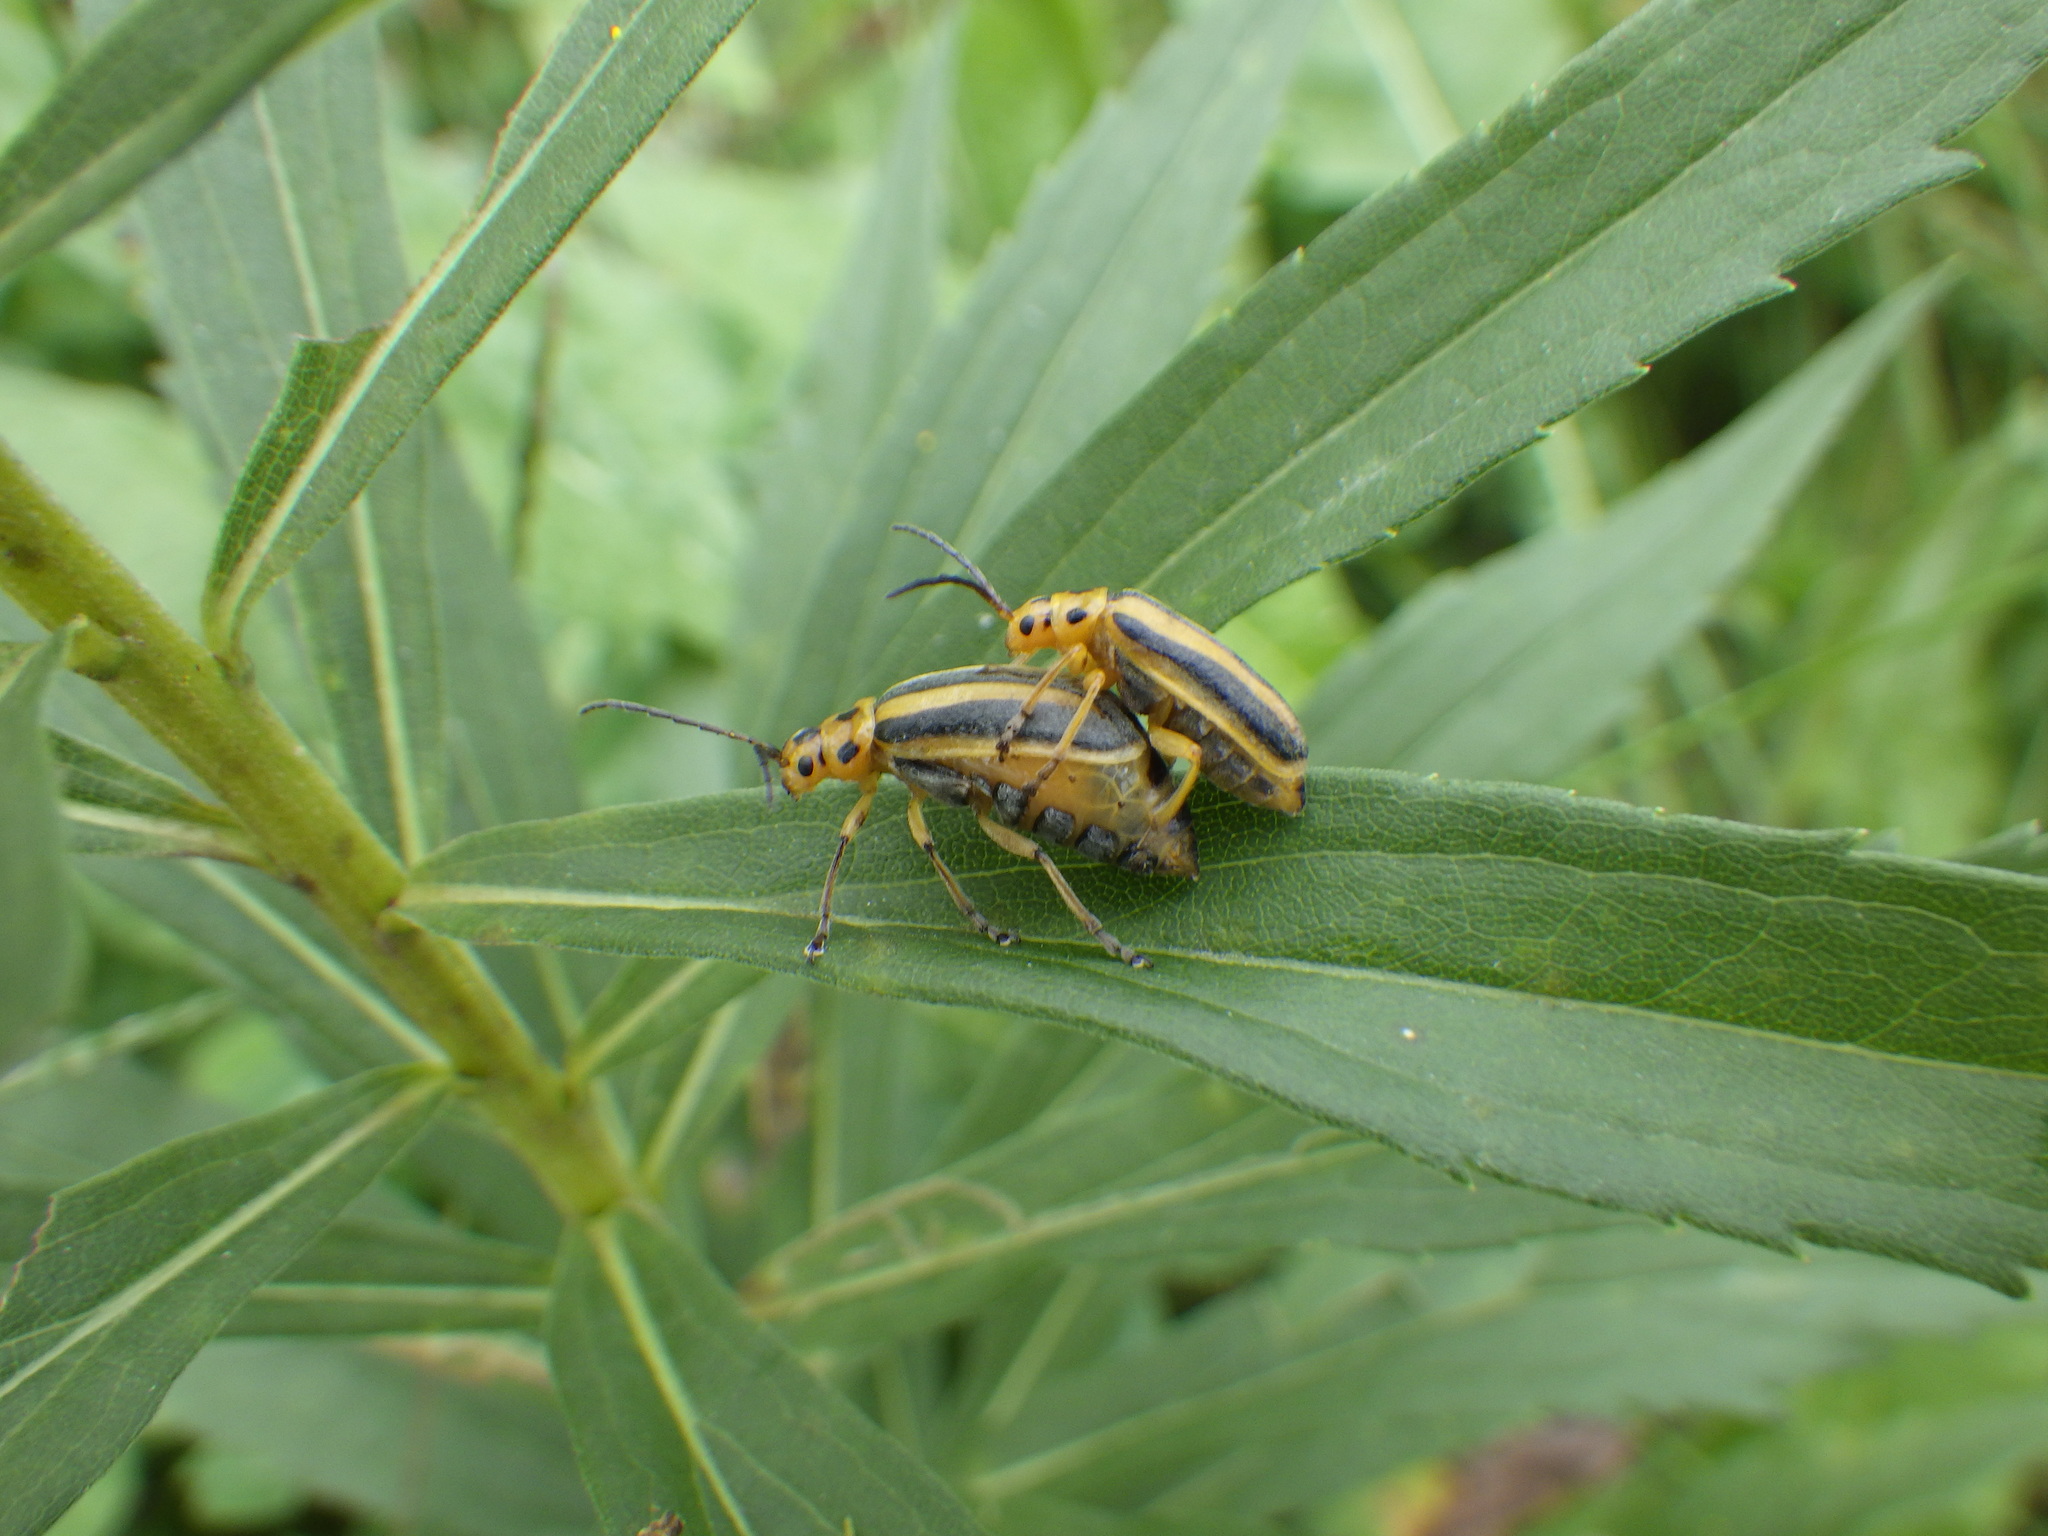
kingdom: Animalia
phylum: Arthropoda
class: Insecta
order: Coleoptera
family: Chrysomelidae
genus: Trirhabda
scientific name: Trirhabda canadensis
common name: Goldenrod leaf beetle
